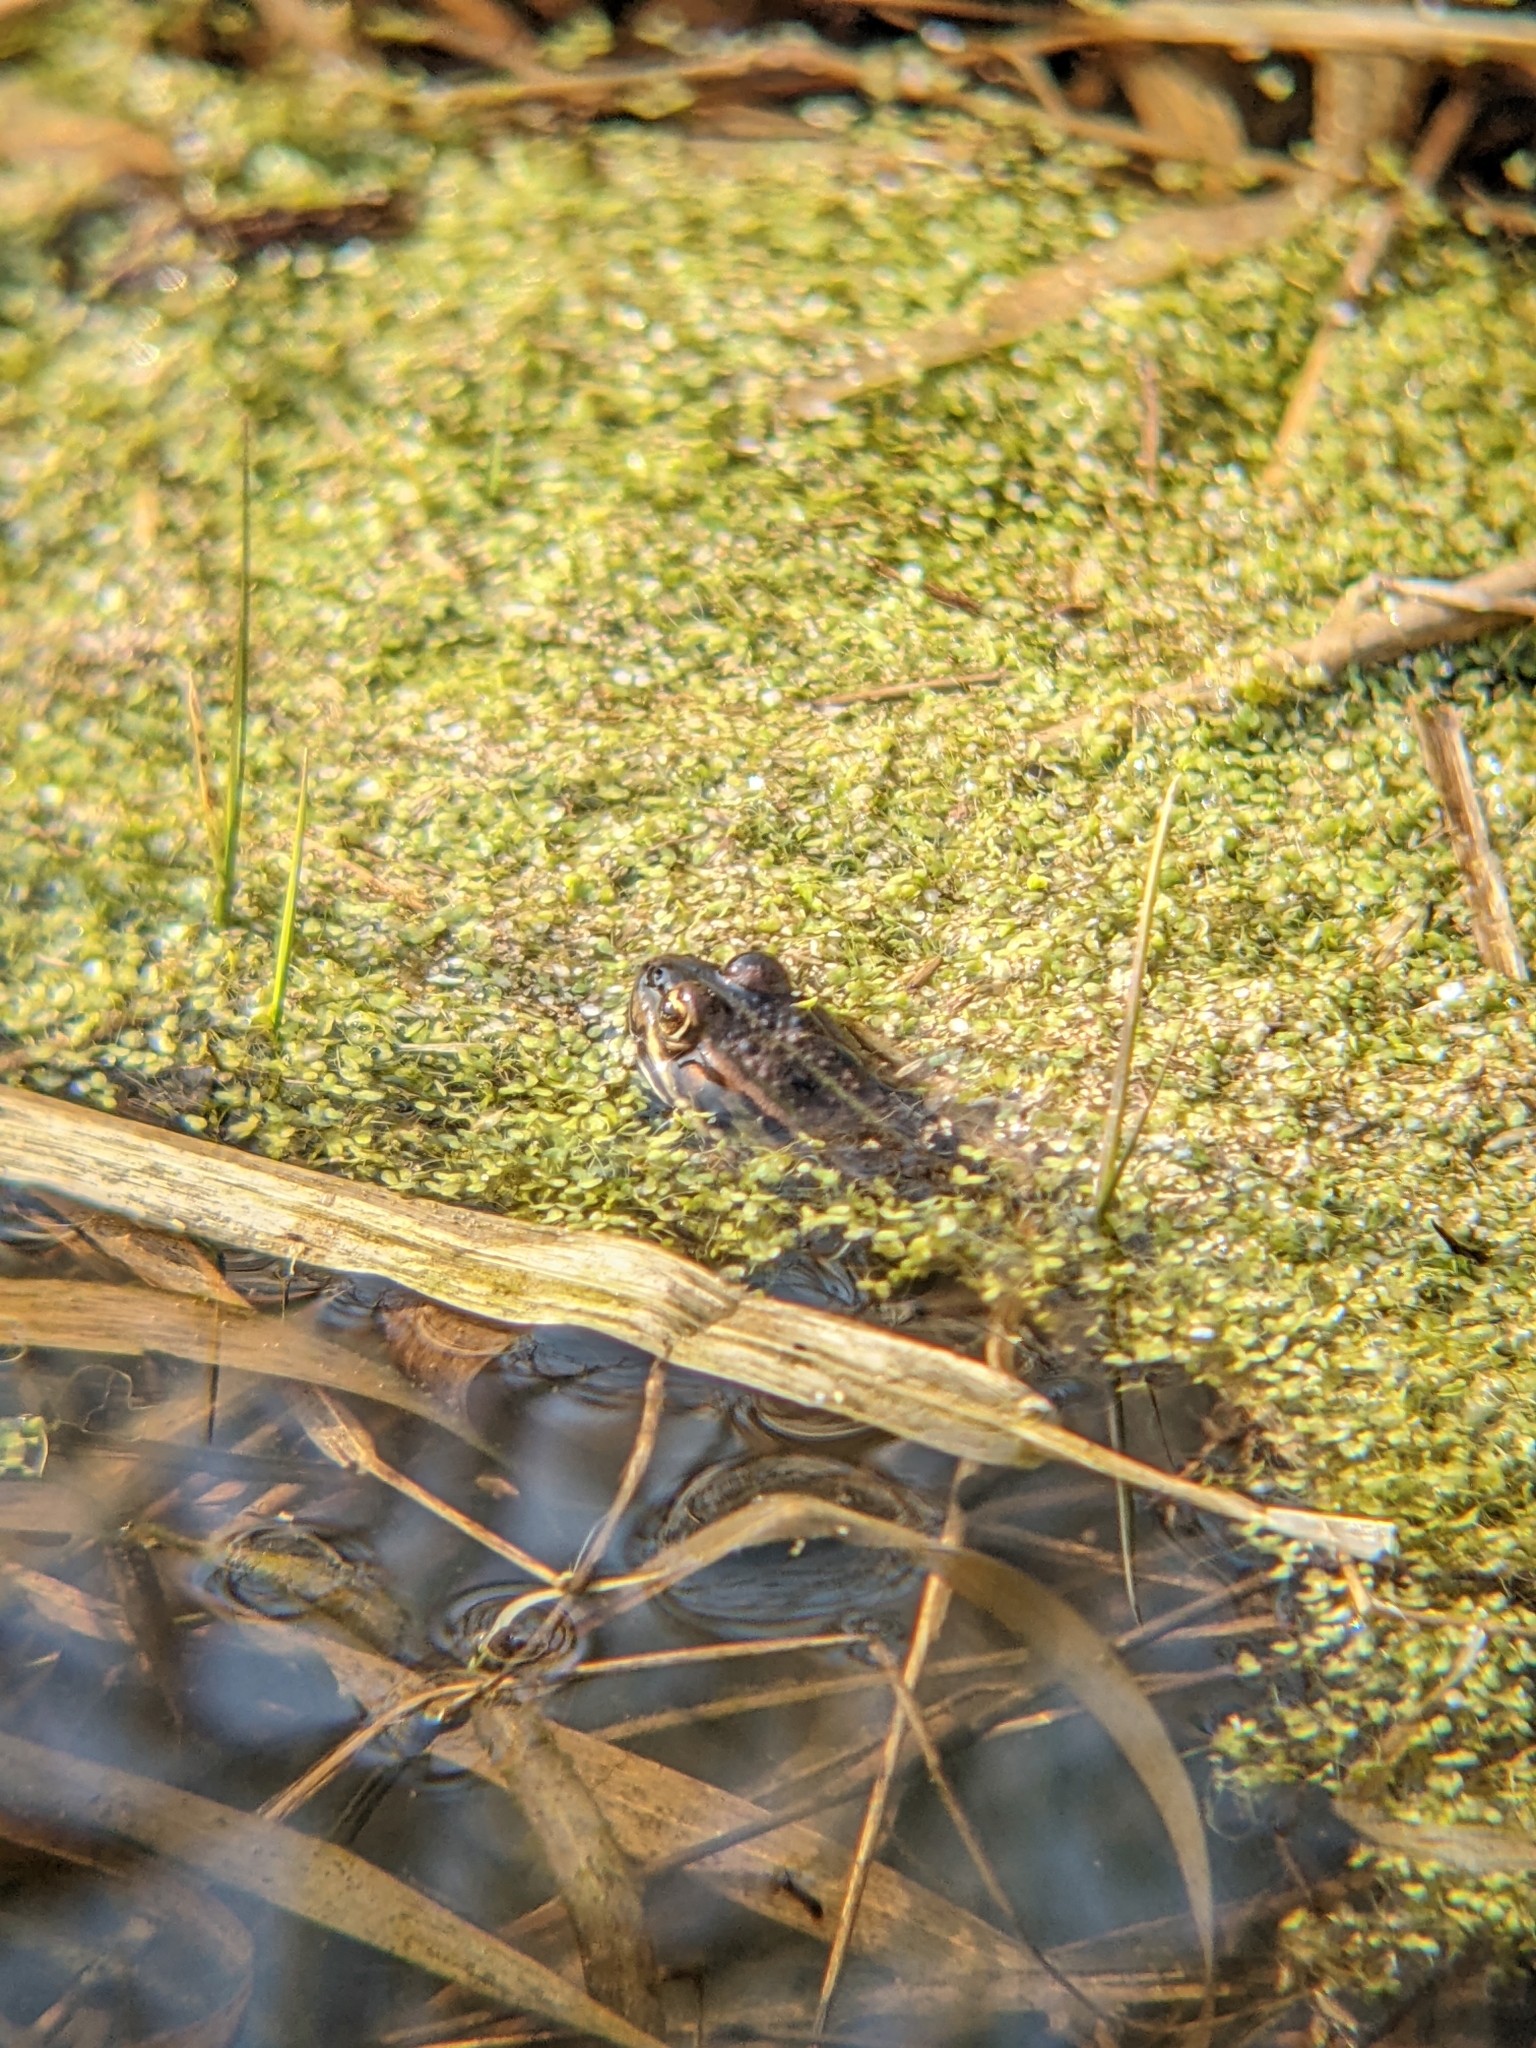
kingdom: Animalia
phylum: Chordata
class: Amphibia
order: Anura
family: Ranidae
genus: Pelophylax
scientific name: Pelophylax
